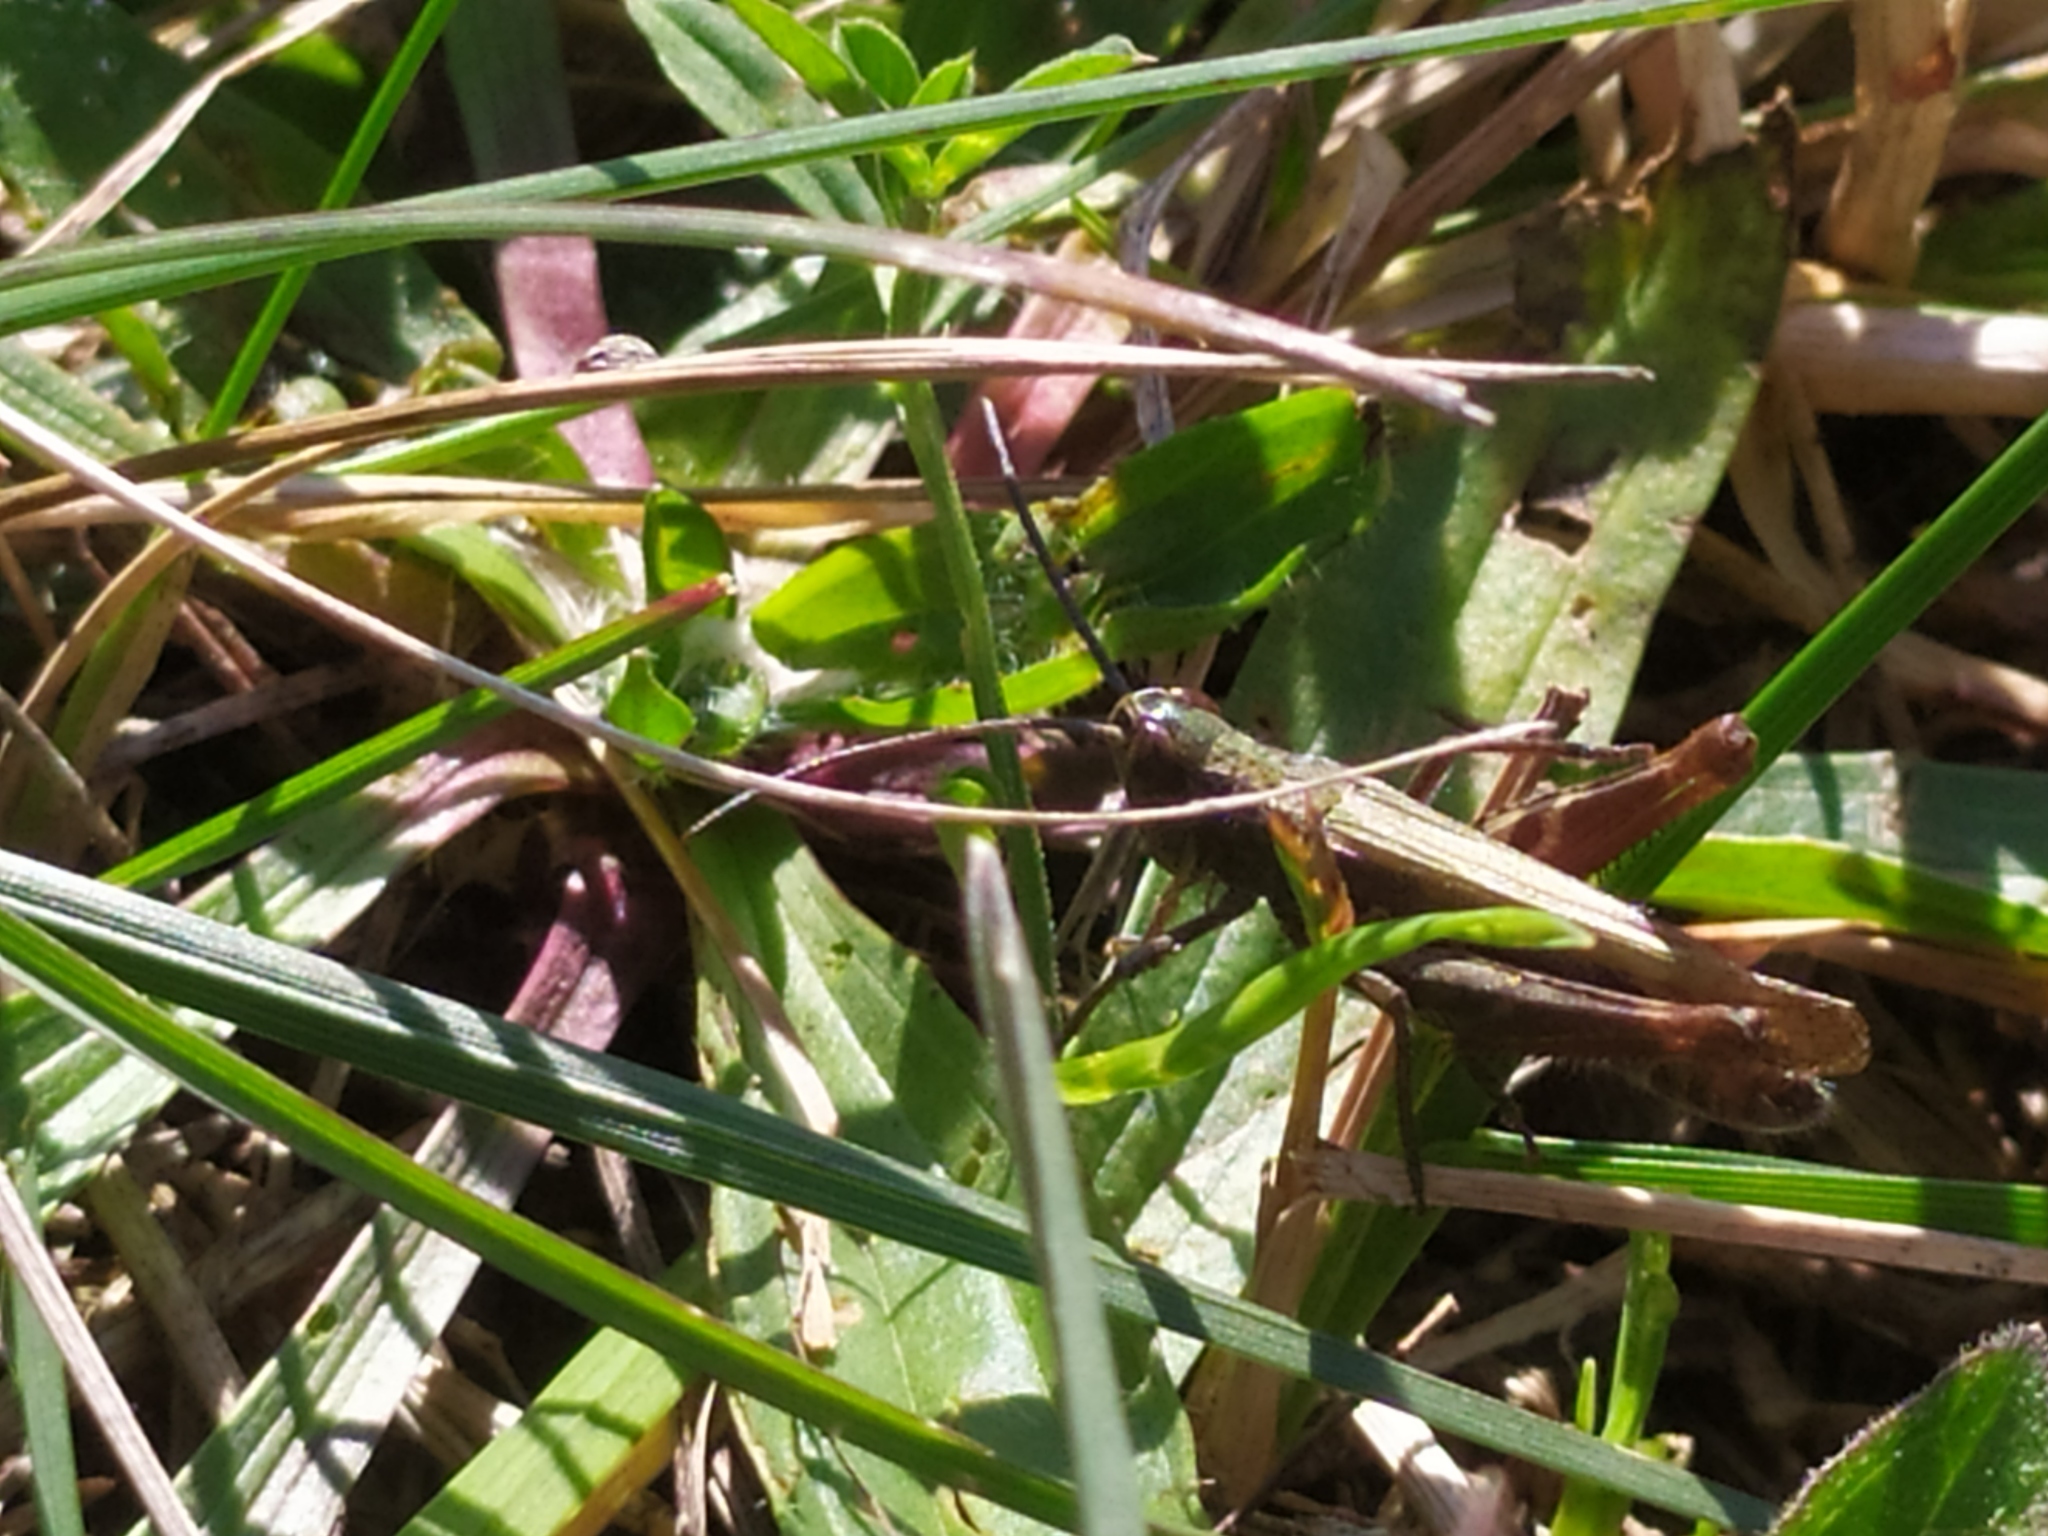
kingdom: Animalia
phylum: Arthropoda
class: Insecta
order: Orthoptera
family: Acrididae
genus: Chorthippus
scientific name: Chorthippus mollis
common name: Lesser field grasshopper
